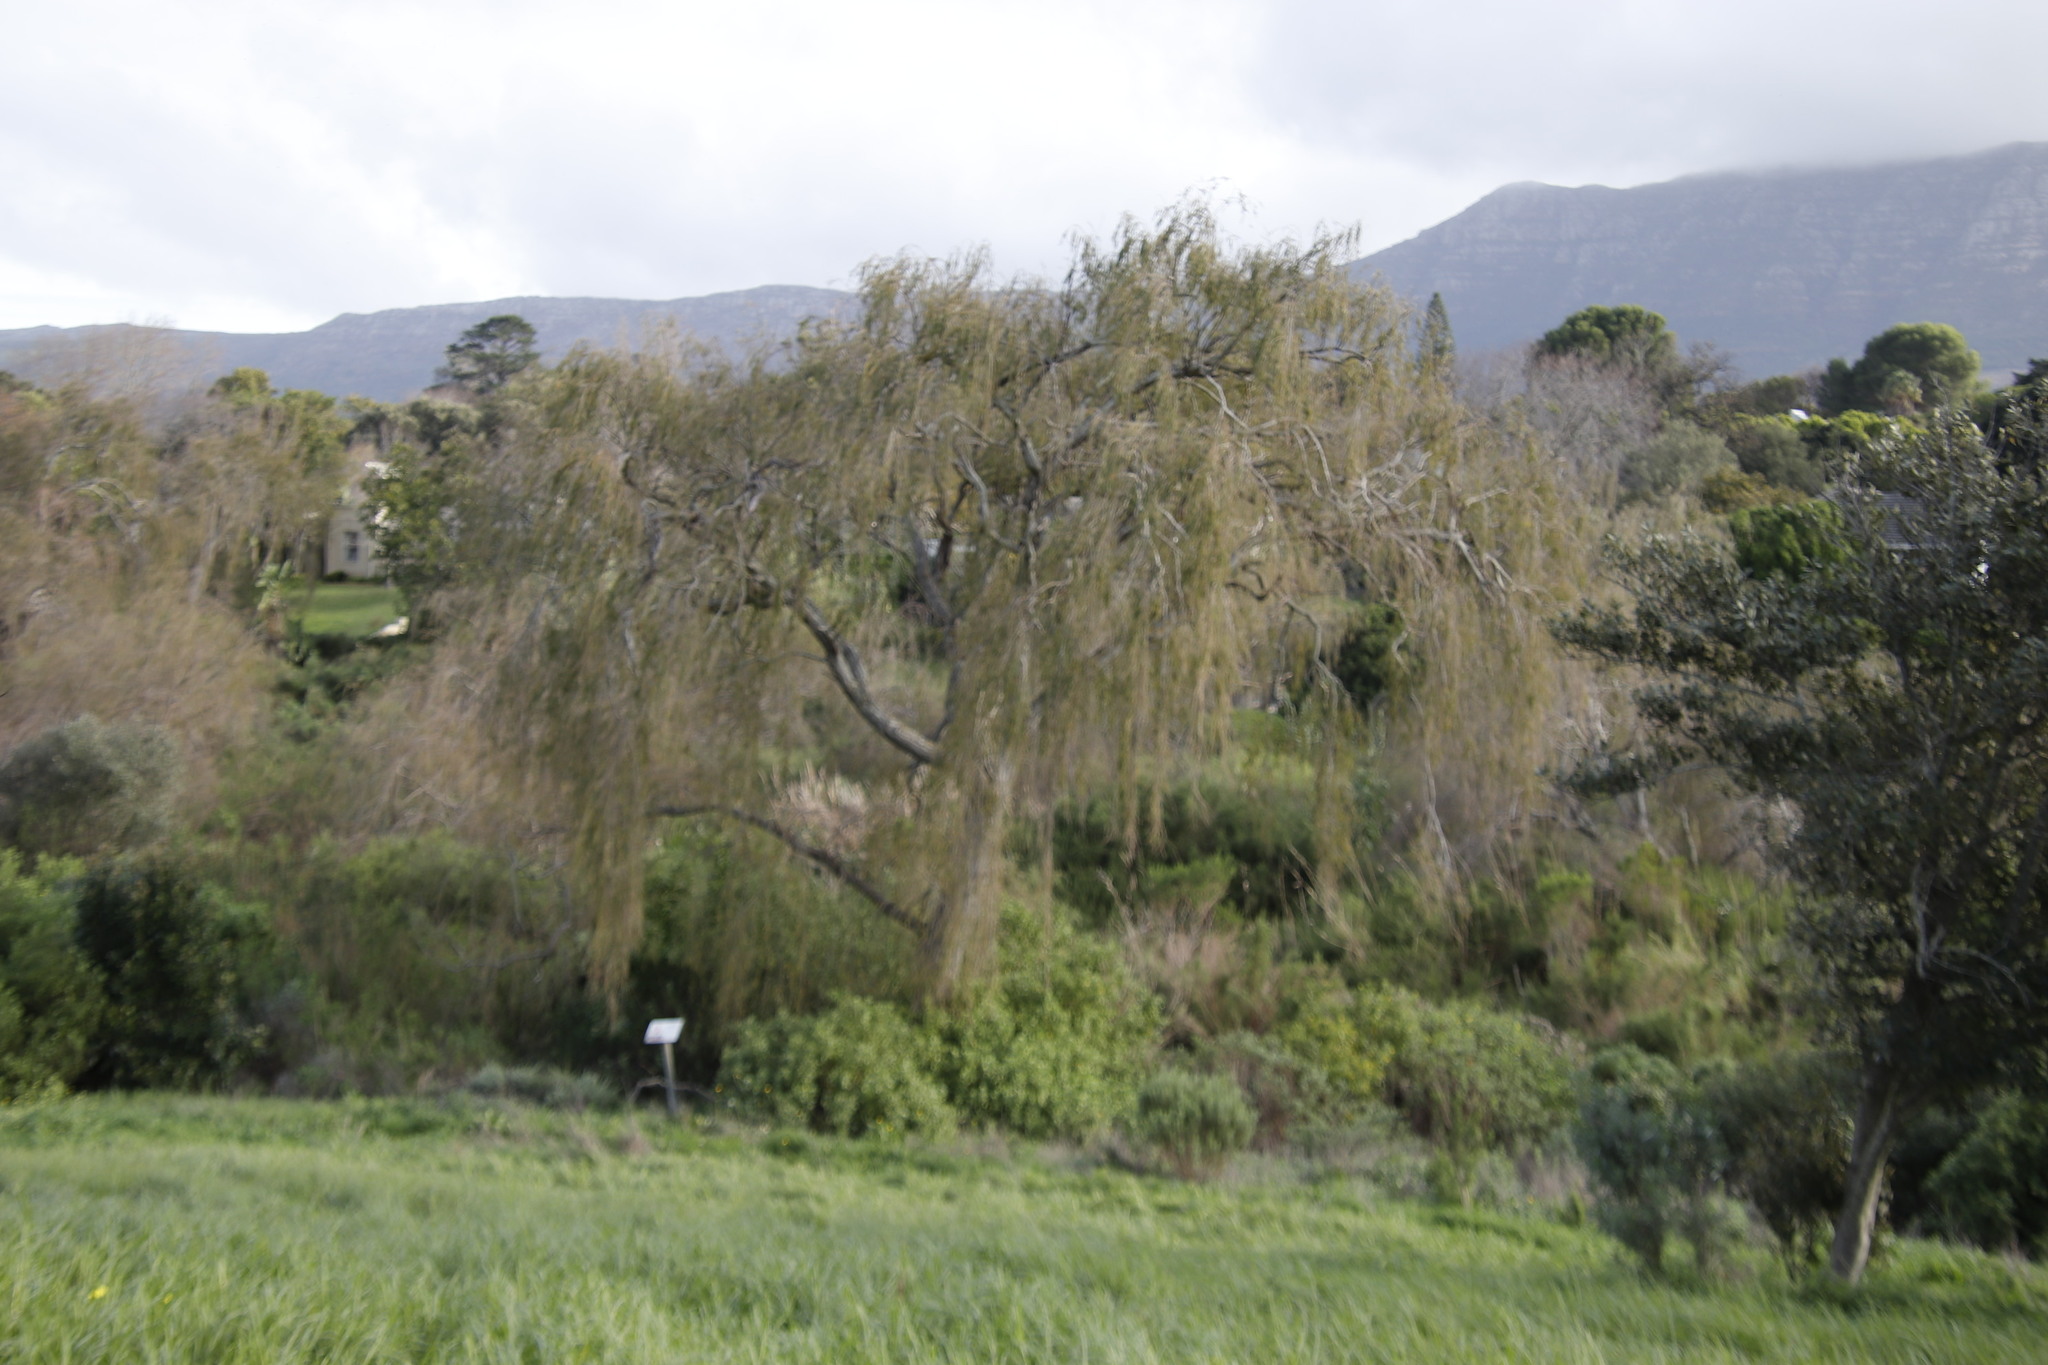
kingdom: Plantae
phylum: Tracheophyta
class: Magnoliopsida
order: Malpighiales
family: Salicaceae
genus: Salix
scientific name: Salix babylonica
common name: Weeping willow
